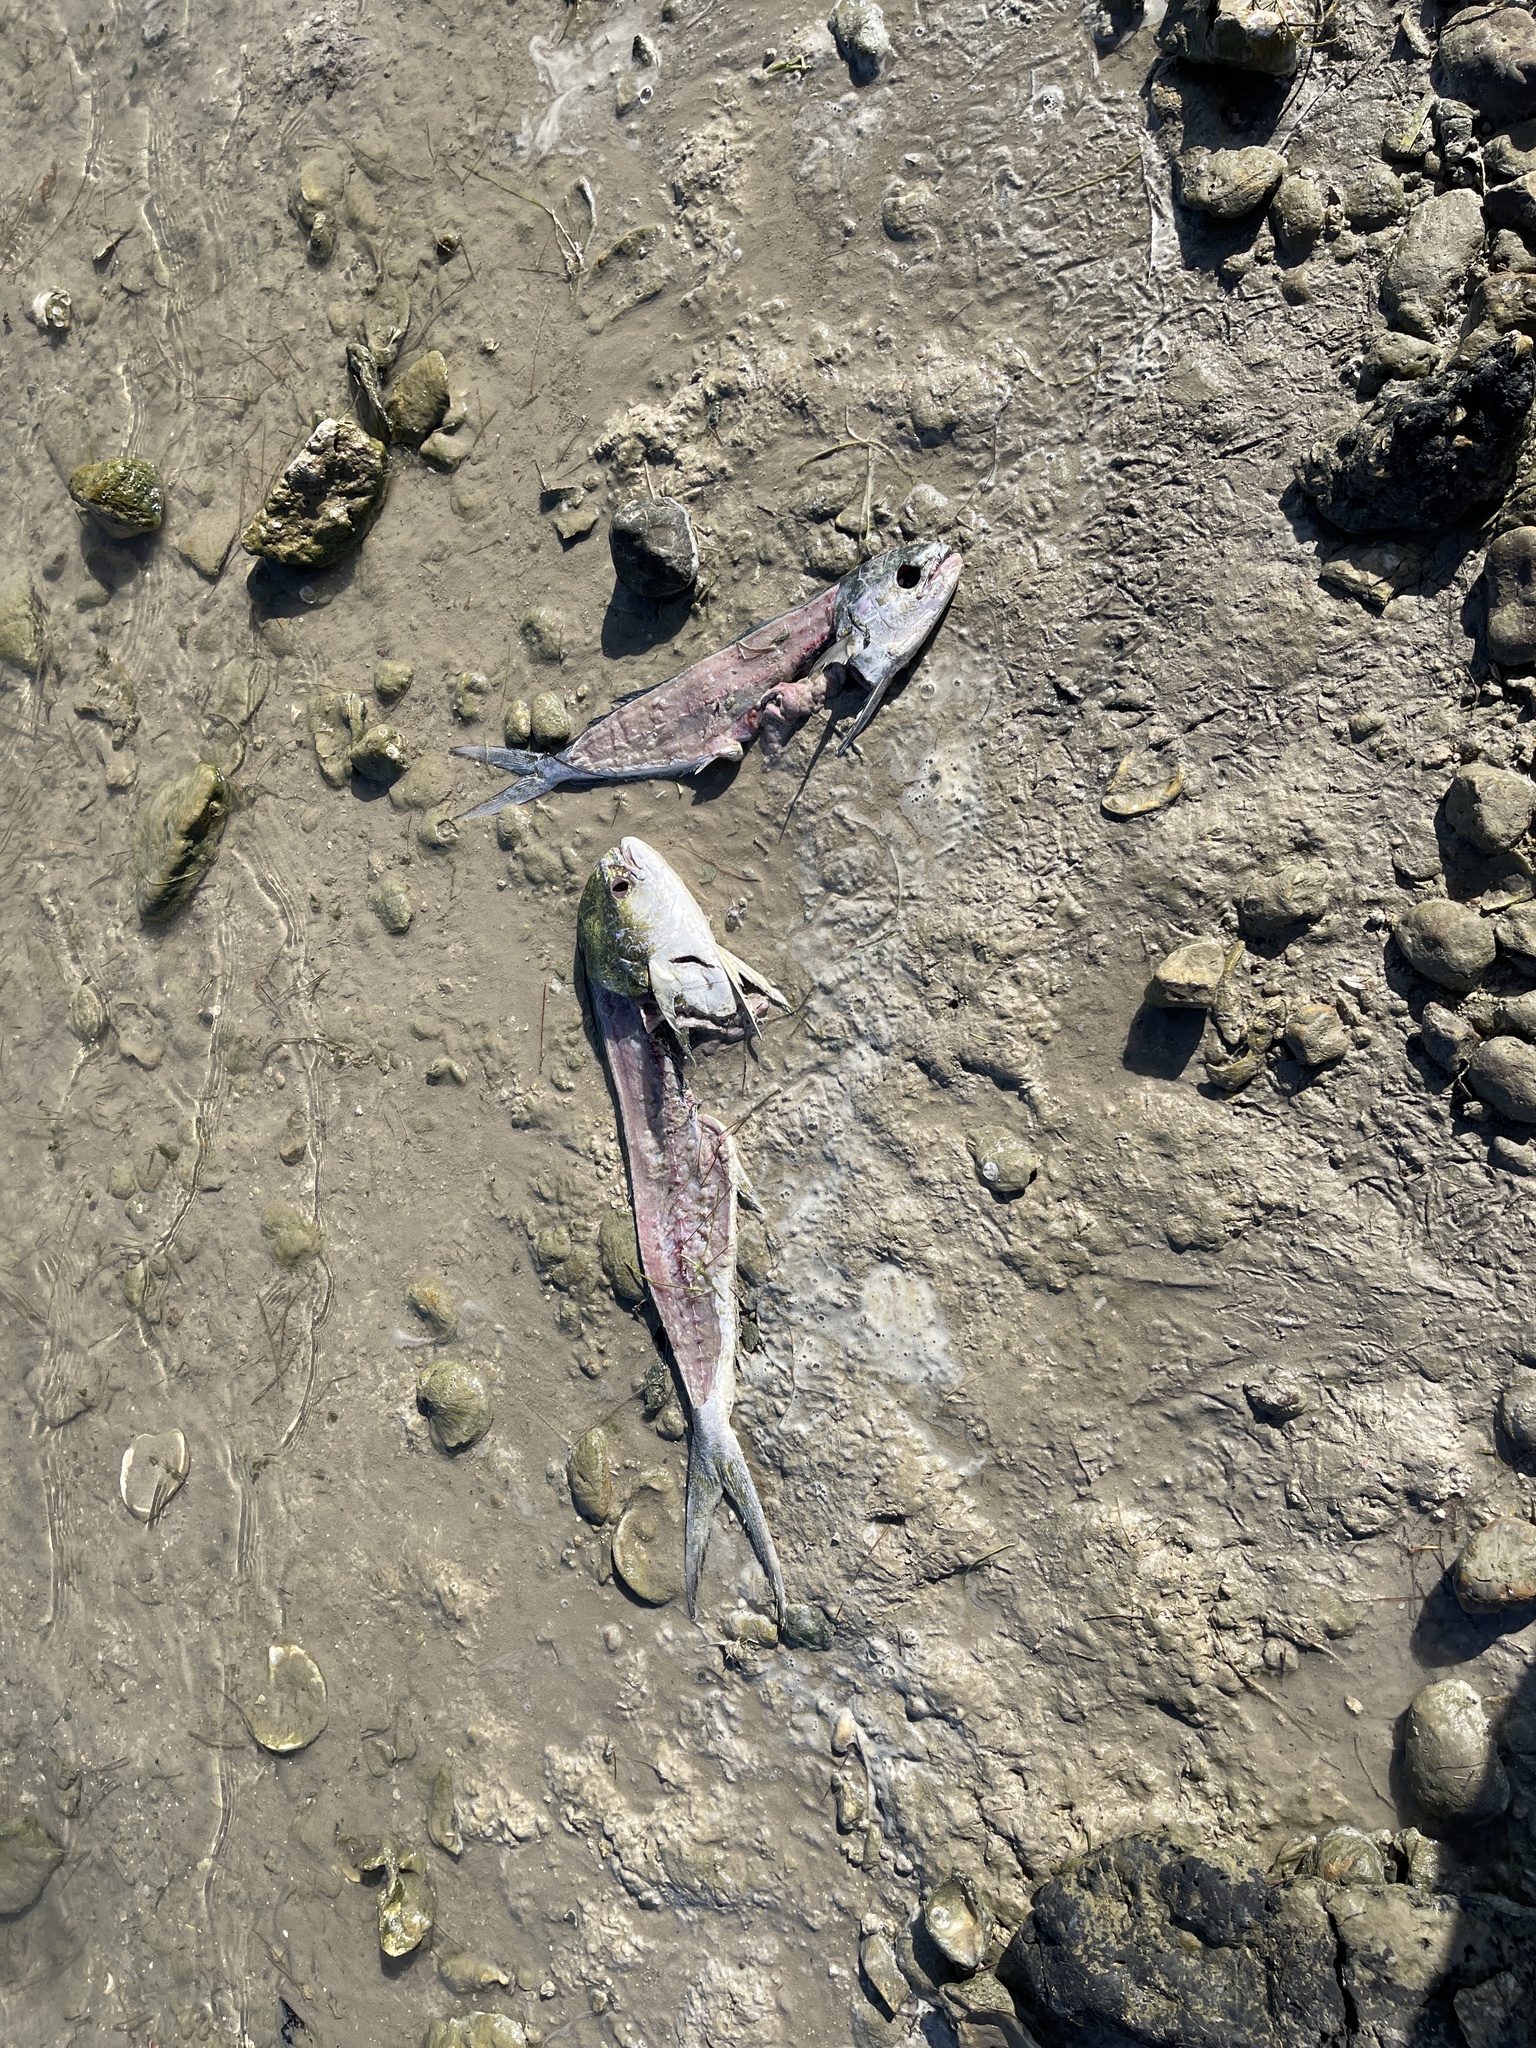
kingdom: Animalia
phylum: Chordata
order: Perciformes
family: Coryphaenidae
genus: Coryphaena
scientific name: Coryphaena hippurus
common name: Dolphin
